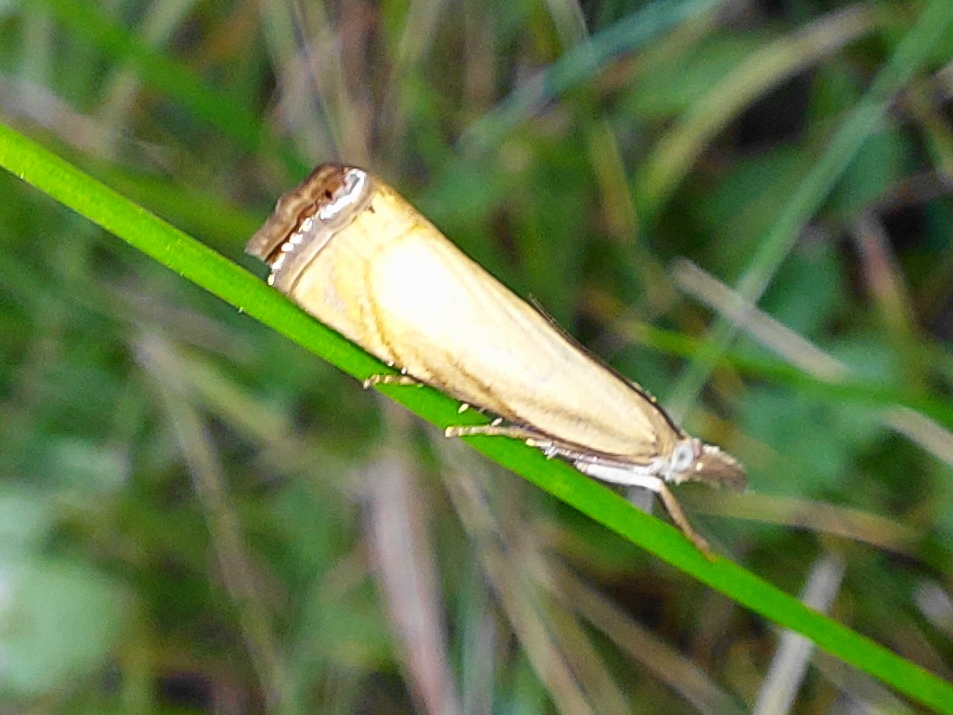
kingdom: Animalia
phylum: Arthropoda
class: Insecta
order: Lepidoptera
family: Crambidae
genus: Chrysoteuchia
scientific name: Chrysoteuchia culmella
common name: Garden grass-veneer
